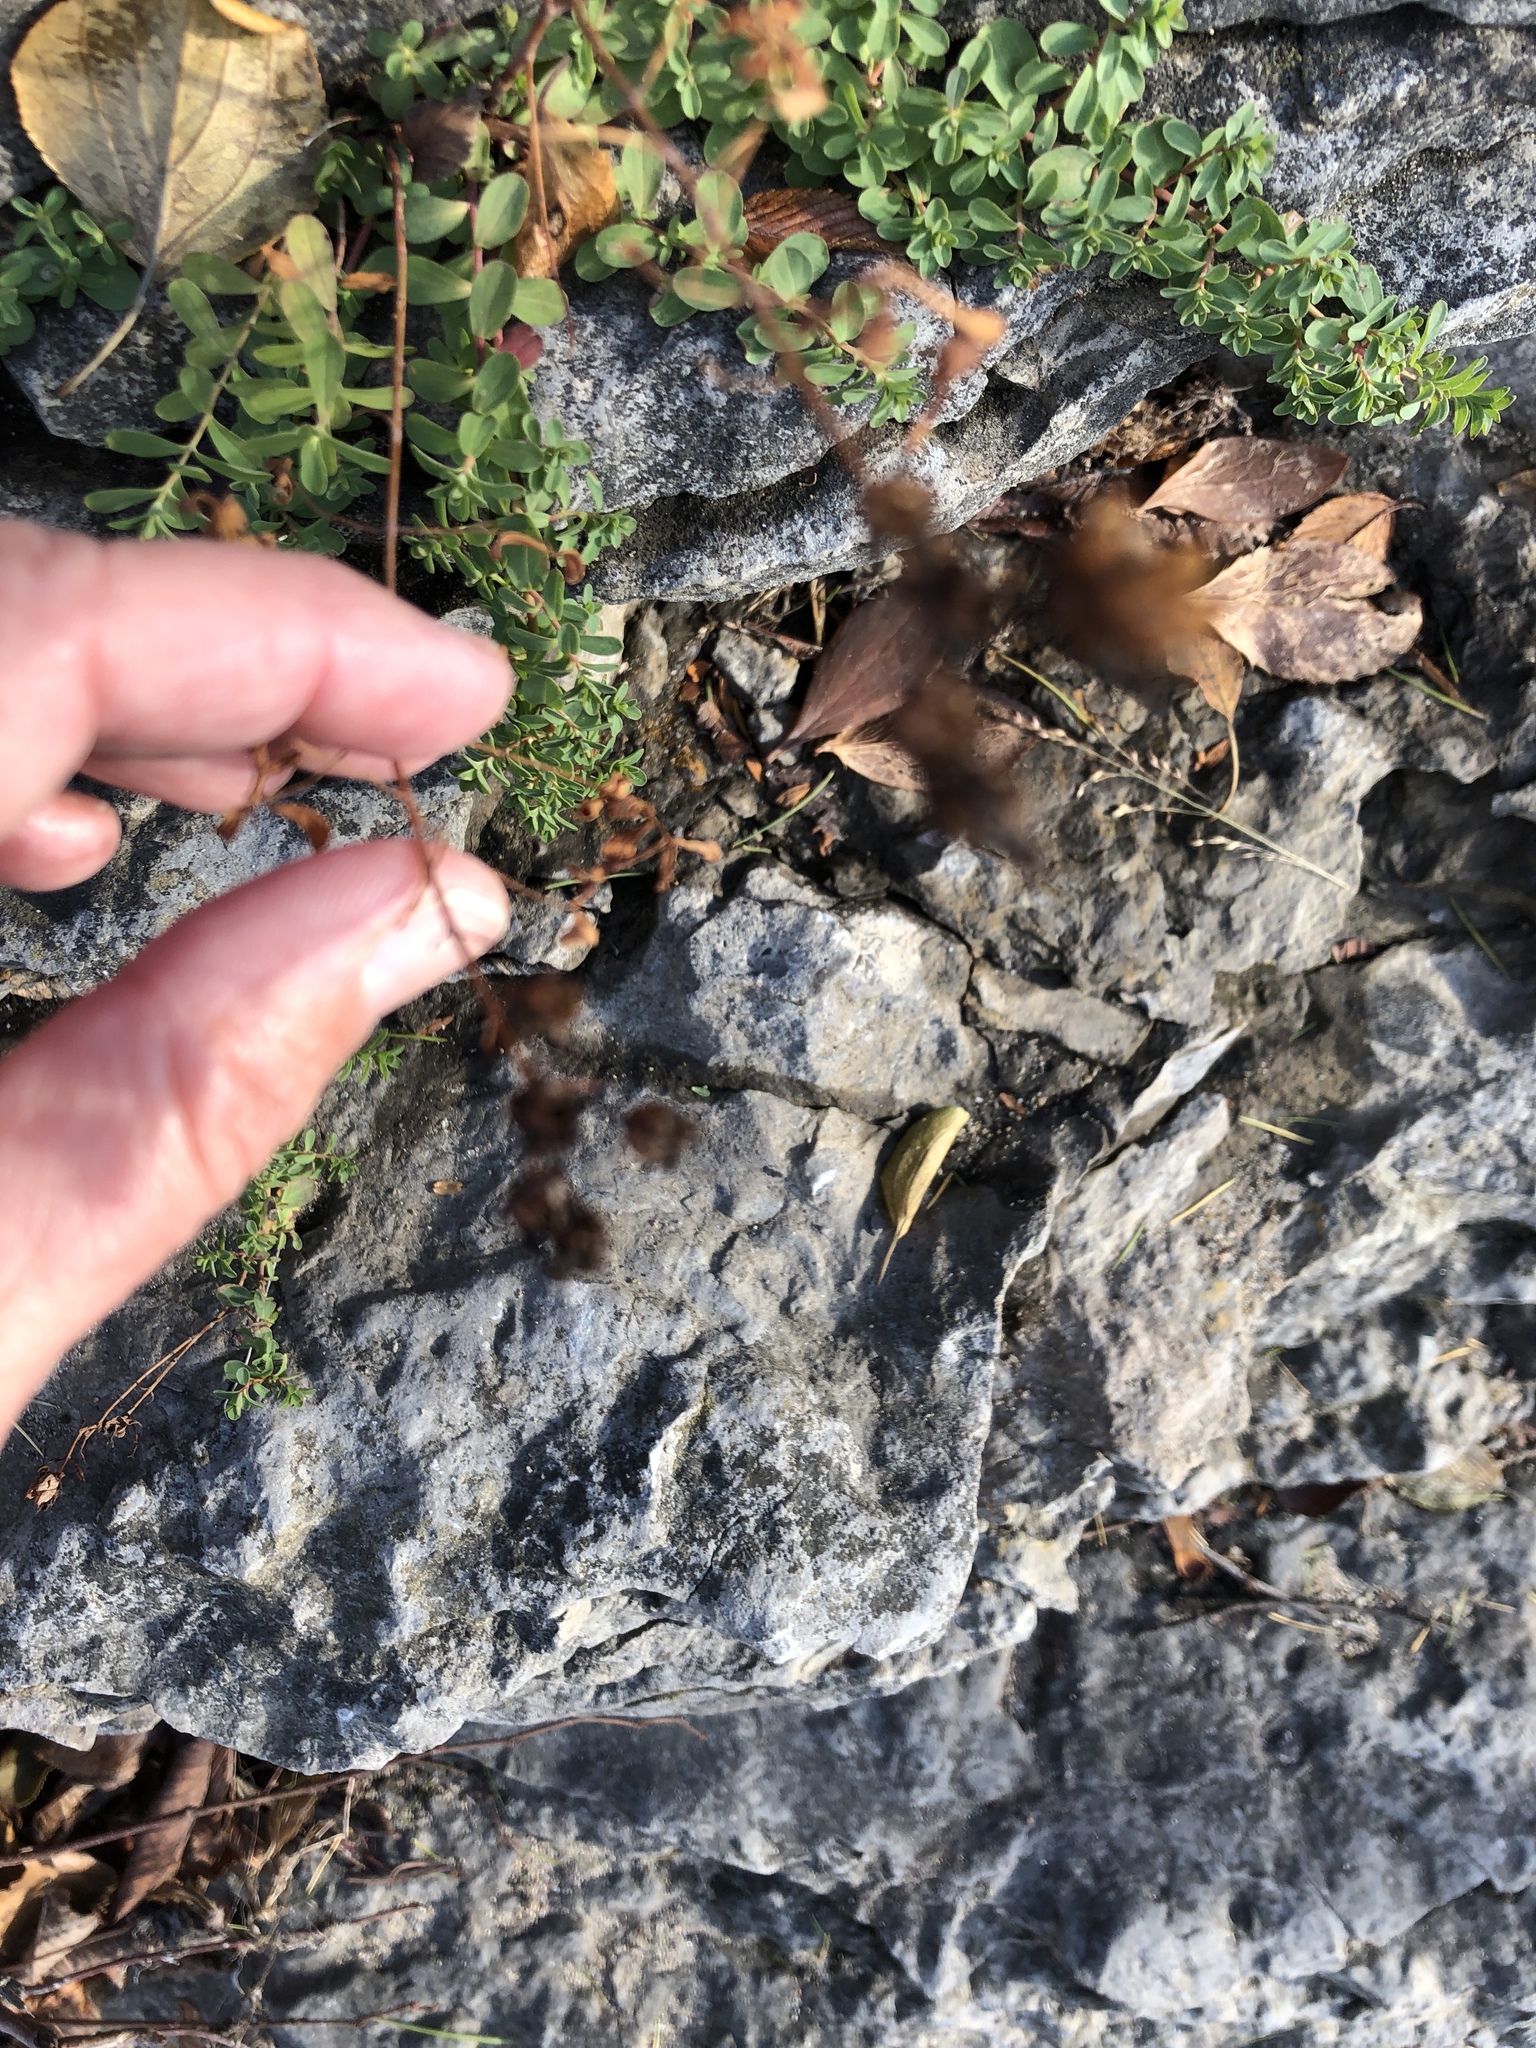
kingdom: Plantae
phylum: Tracheophyta
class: Magnoliopsida
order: Malpighiales
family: Hypericaceae
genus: Hypericum
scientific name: Hypericum perforatum
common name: Common st. johnswort
